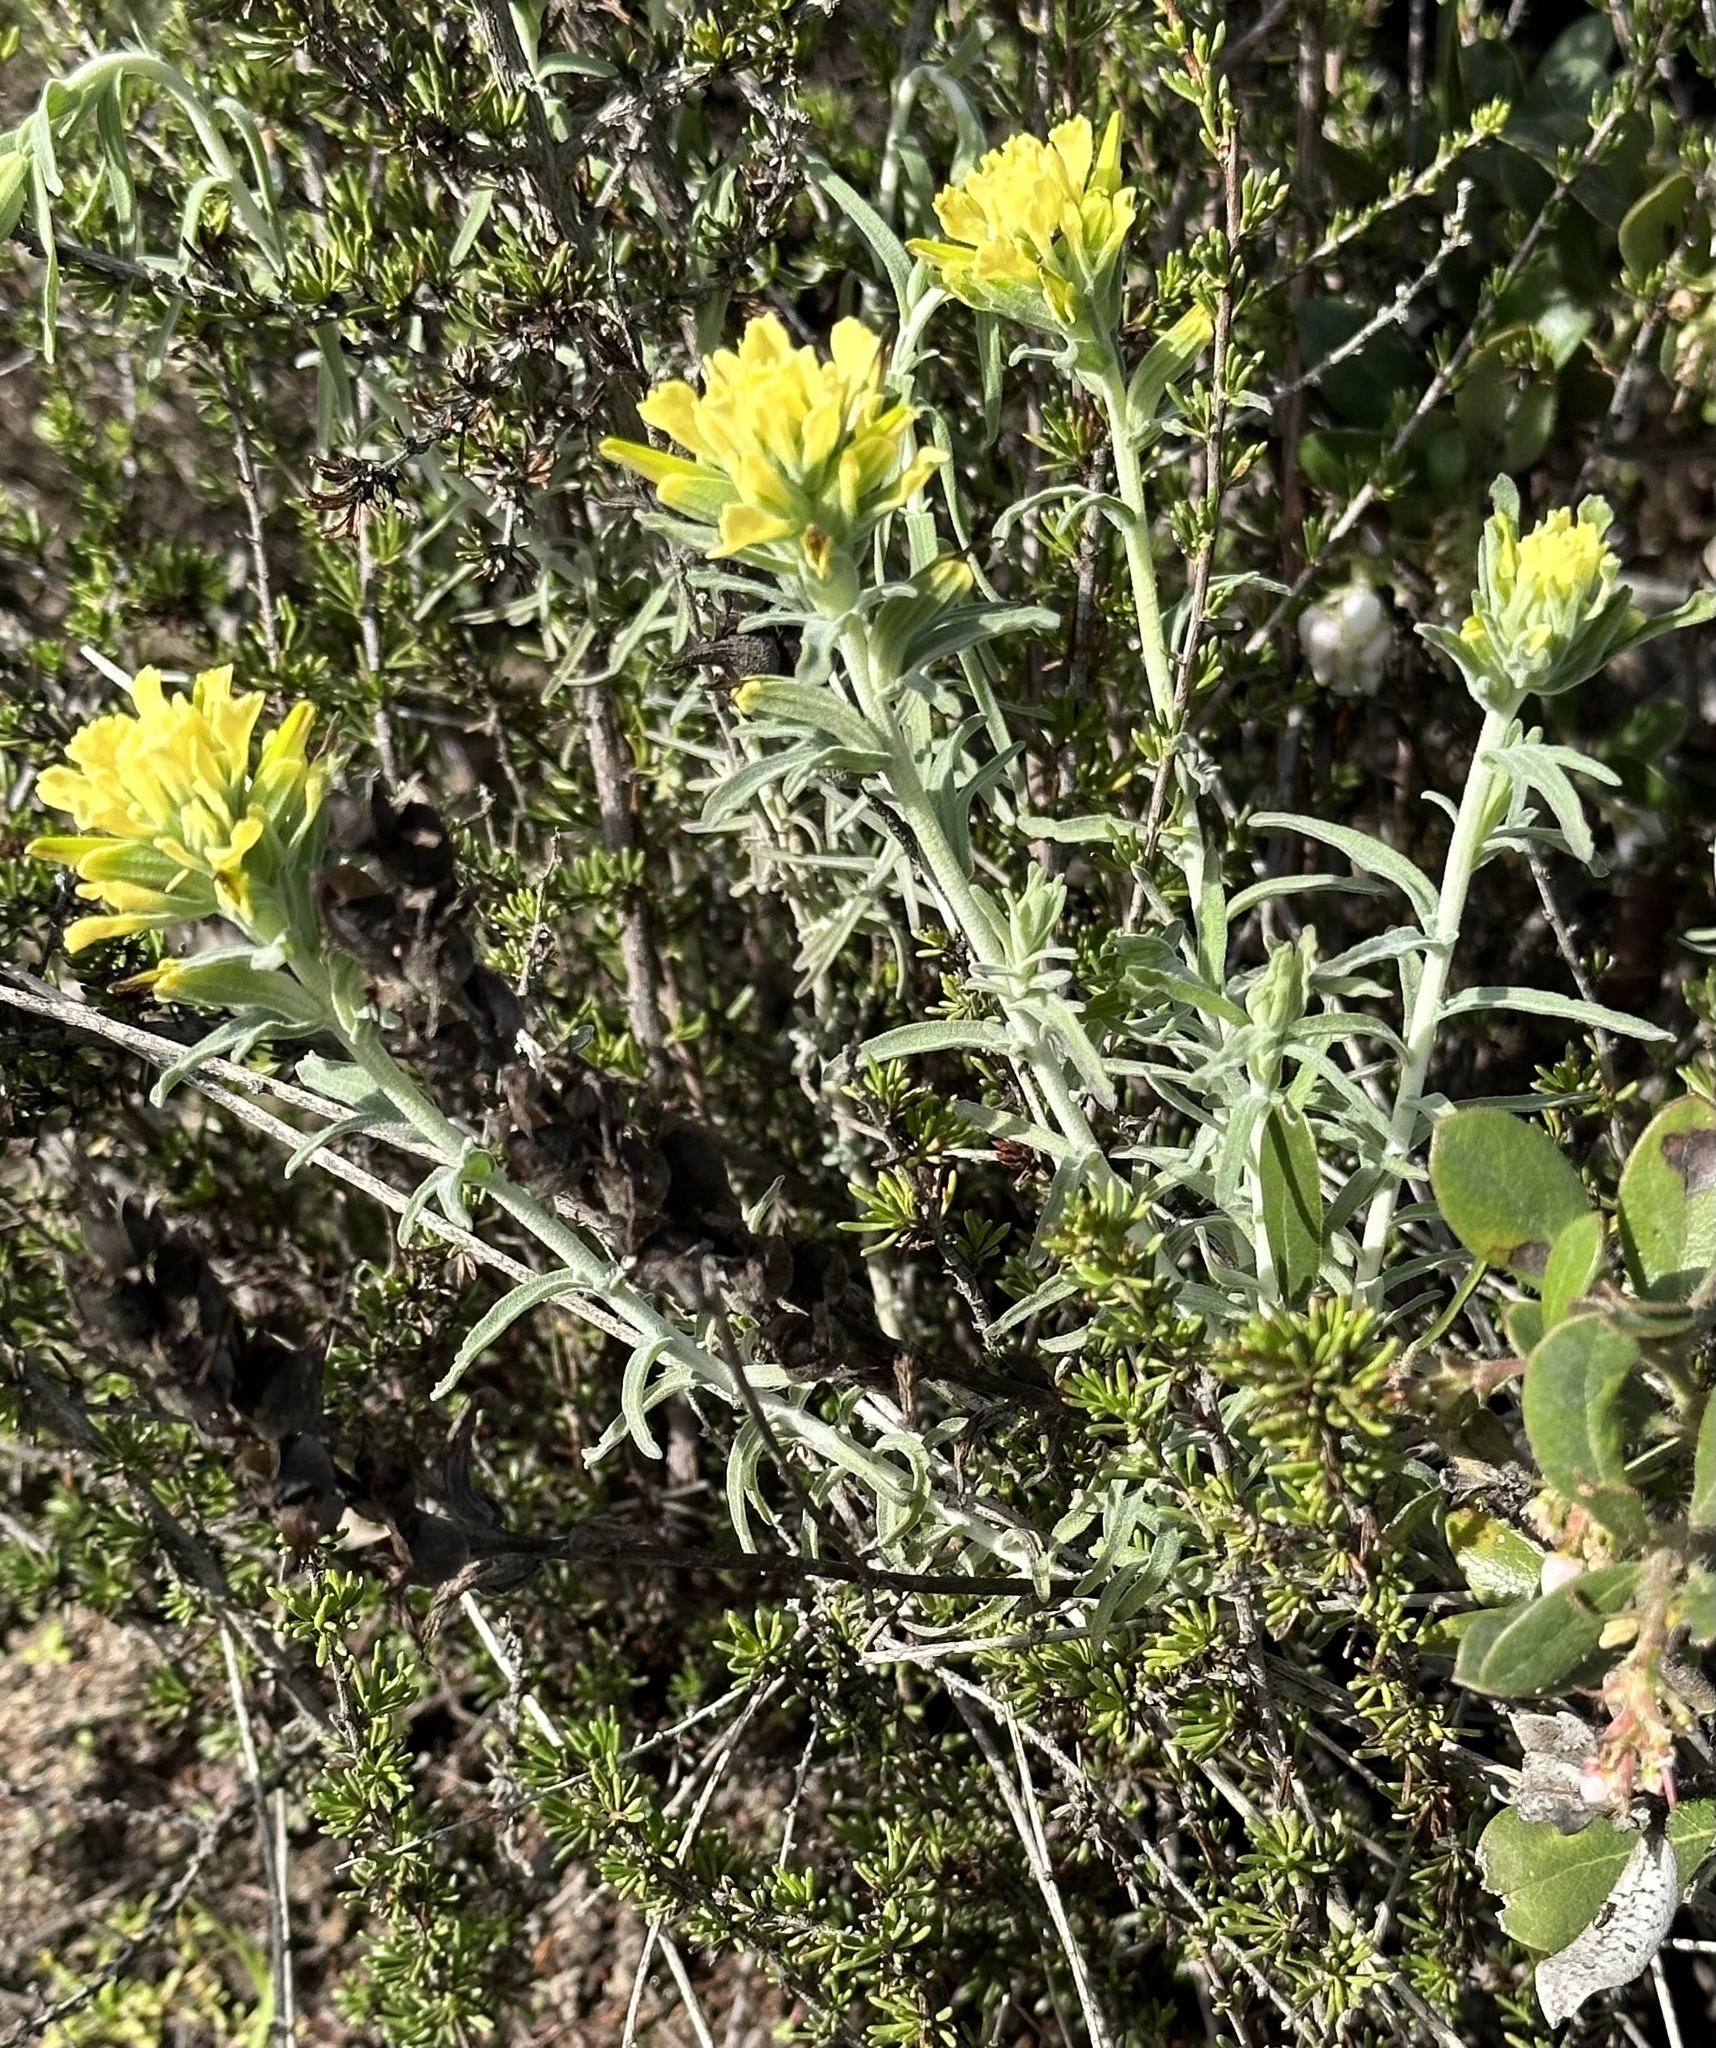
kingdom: Plantae
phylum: Tracheophyta
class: Magnoliopsida
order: Lamiales
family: Orobanchaceae
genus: Castilleja
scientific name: Castilleja foliolosa
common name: Woolly indian paintbrush
